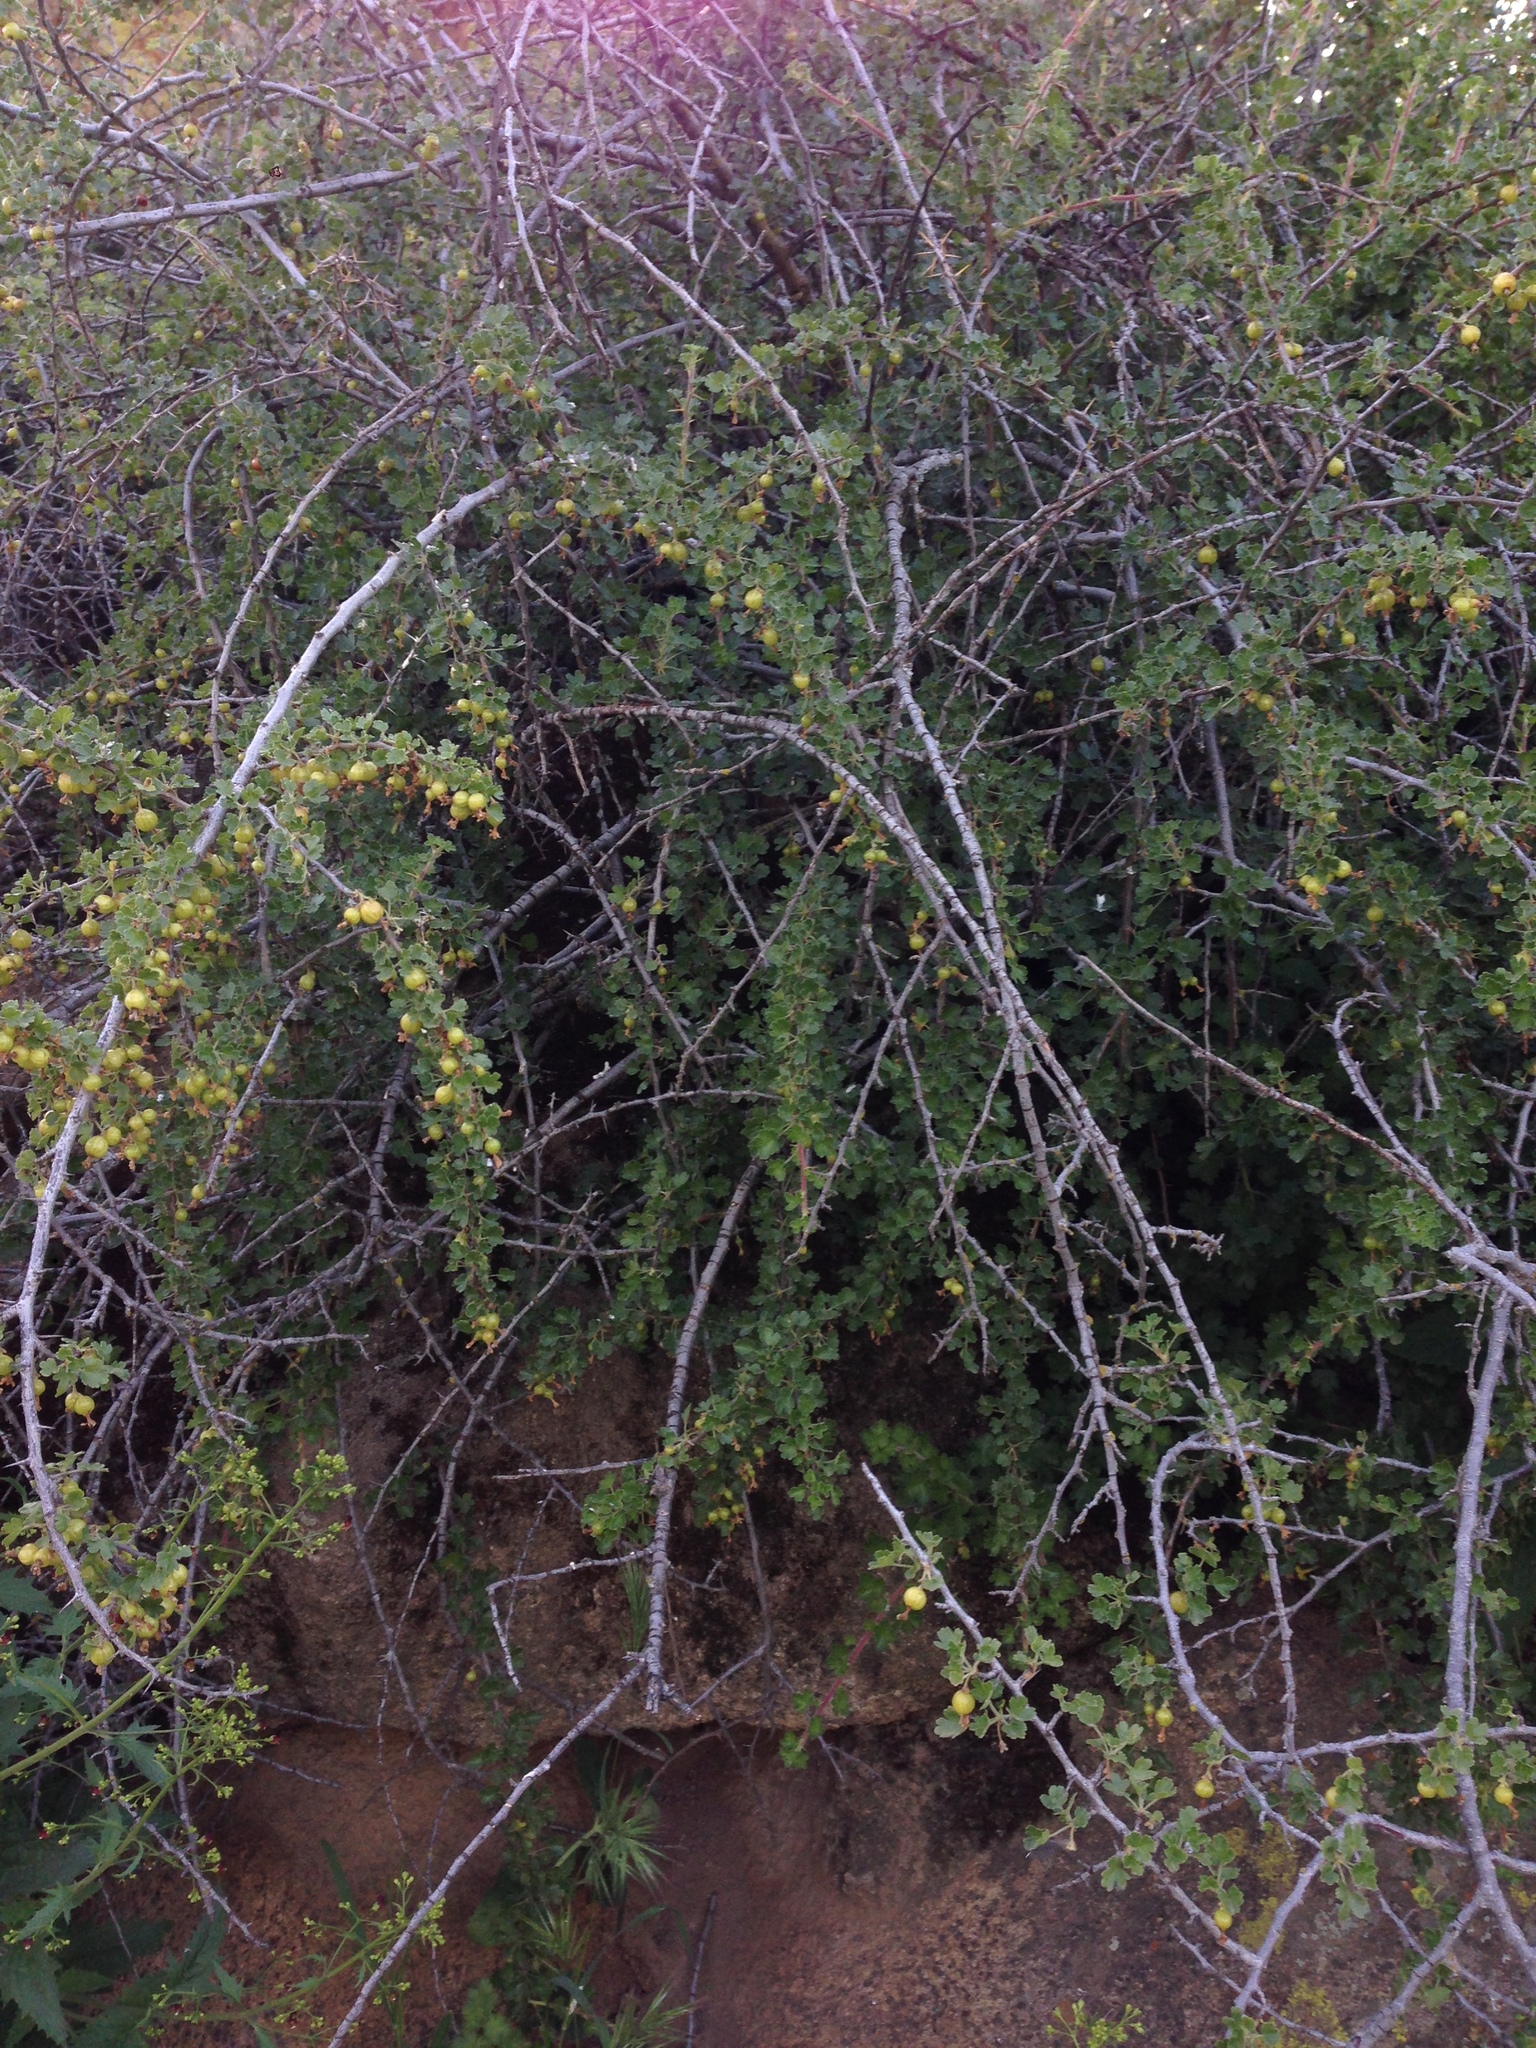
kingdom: Plantae
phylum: Tracheophyta
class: Magnoliopsida
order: Saxifragales
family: Grossulariaceae
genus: Ribes
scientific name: Ribes quercetorum
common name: Oak gooseberry
